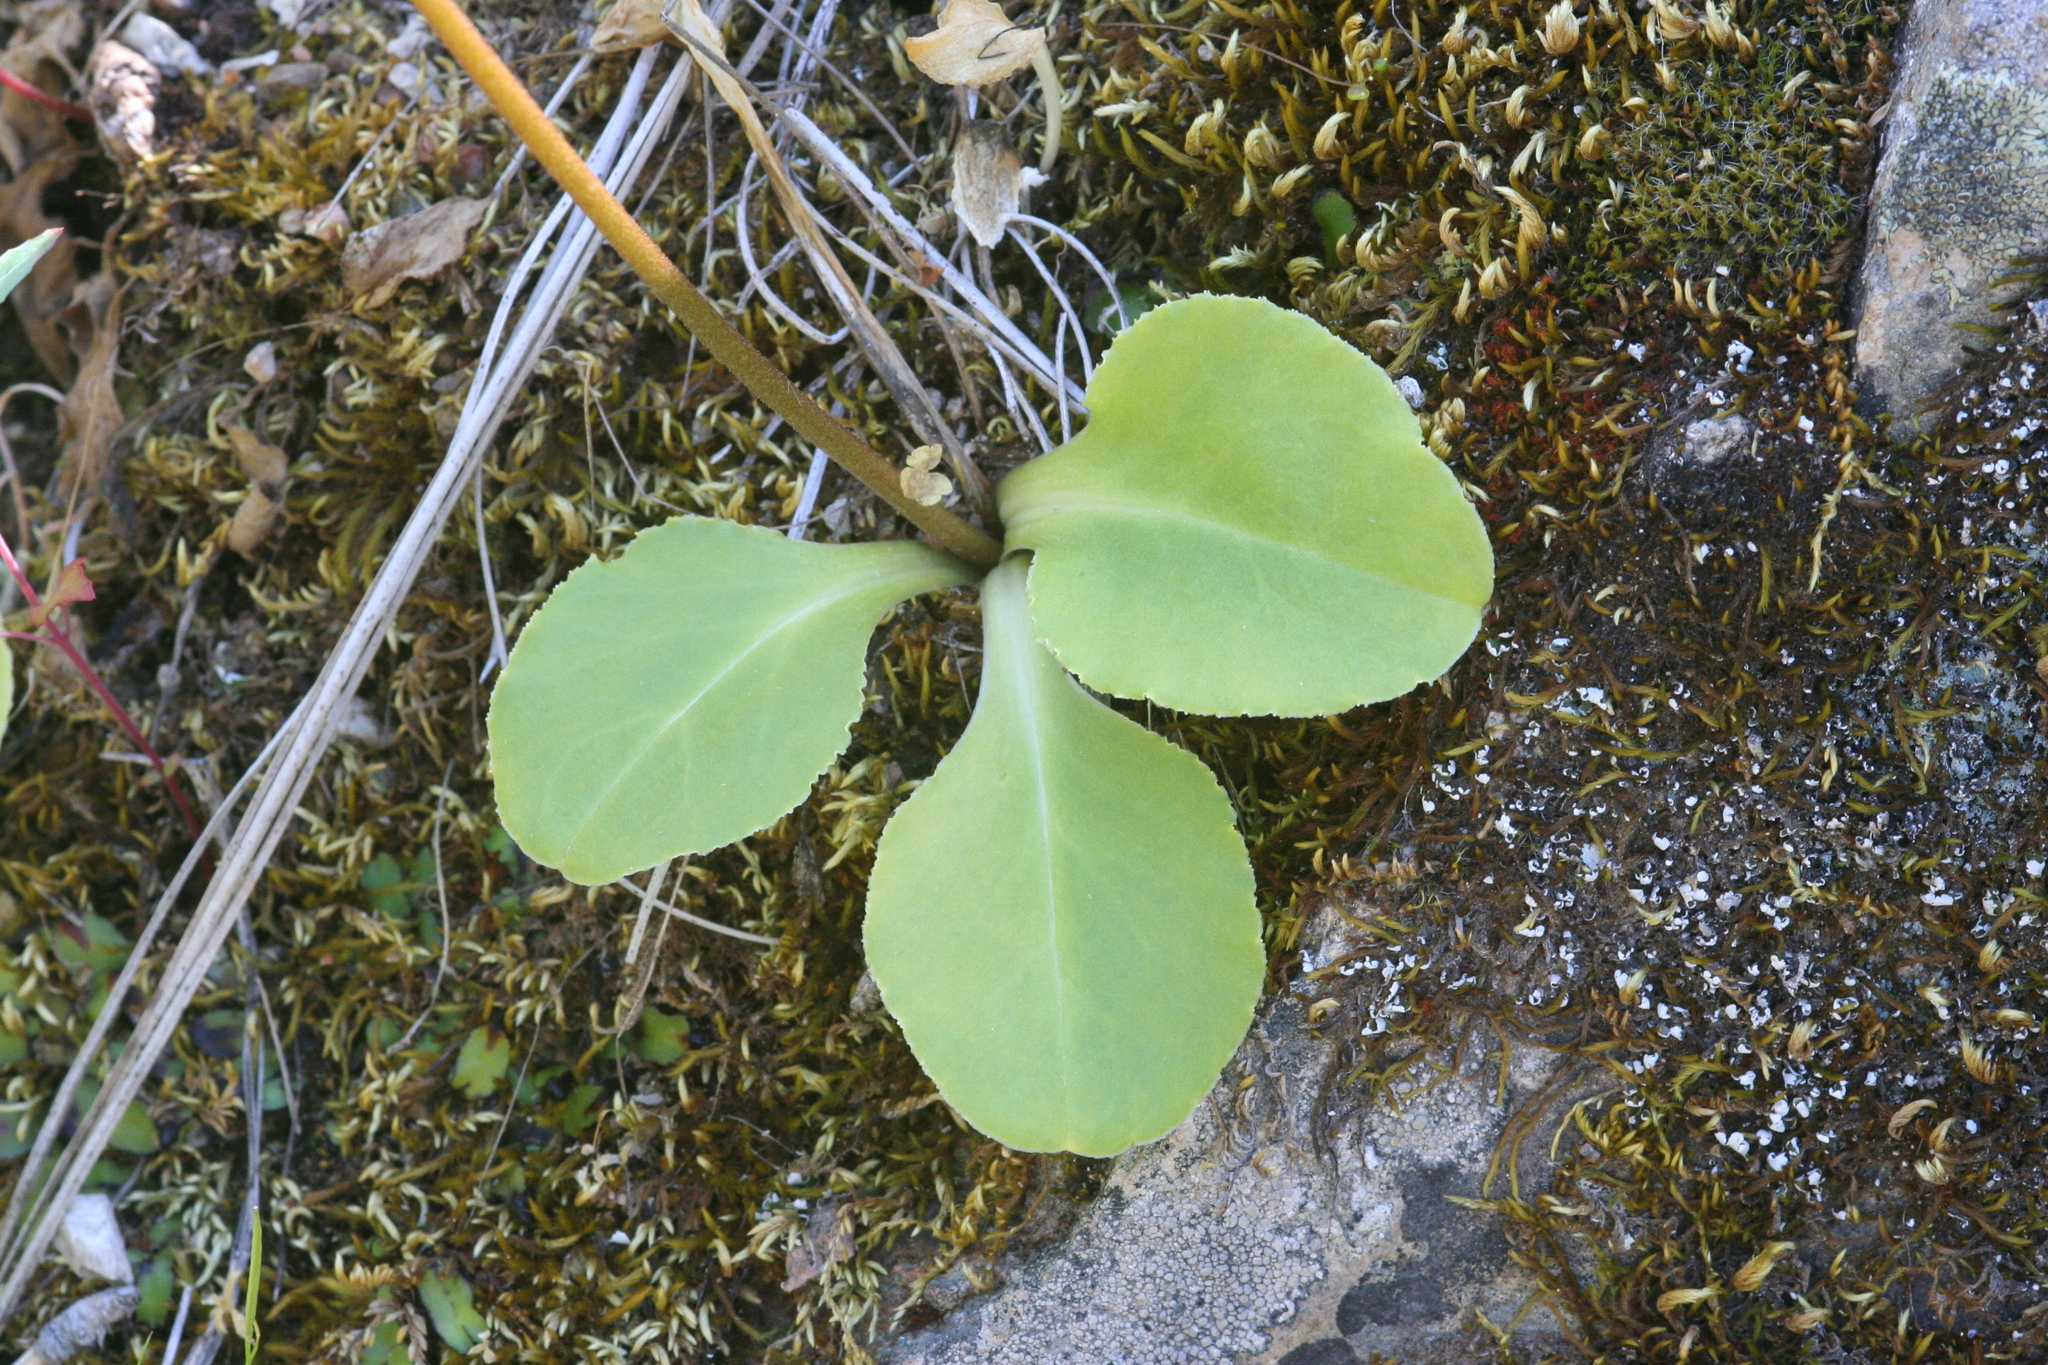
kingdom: Plantae
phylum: Tracheophyta
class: Magnoliopsida
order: Ericales
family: Primulaceae
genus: Dodecatheon
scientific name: Dodecatheon hendersonii
